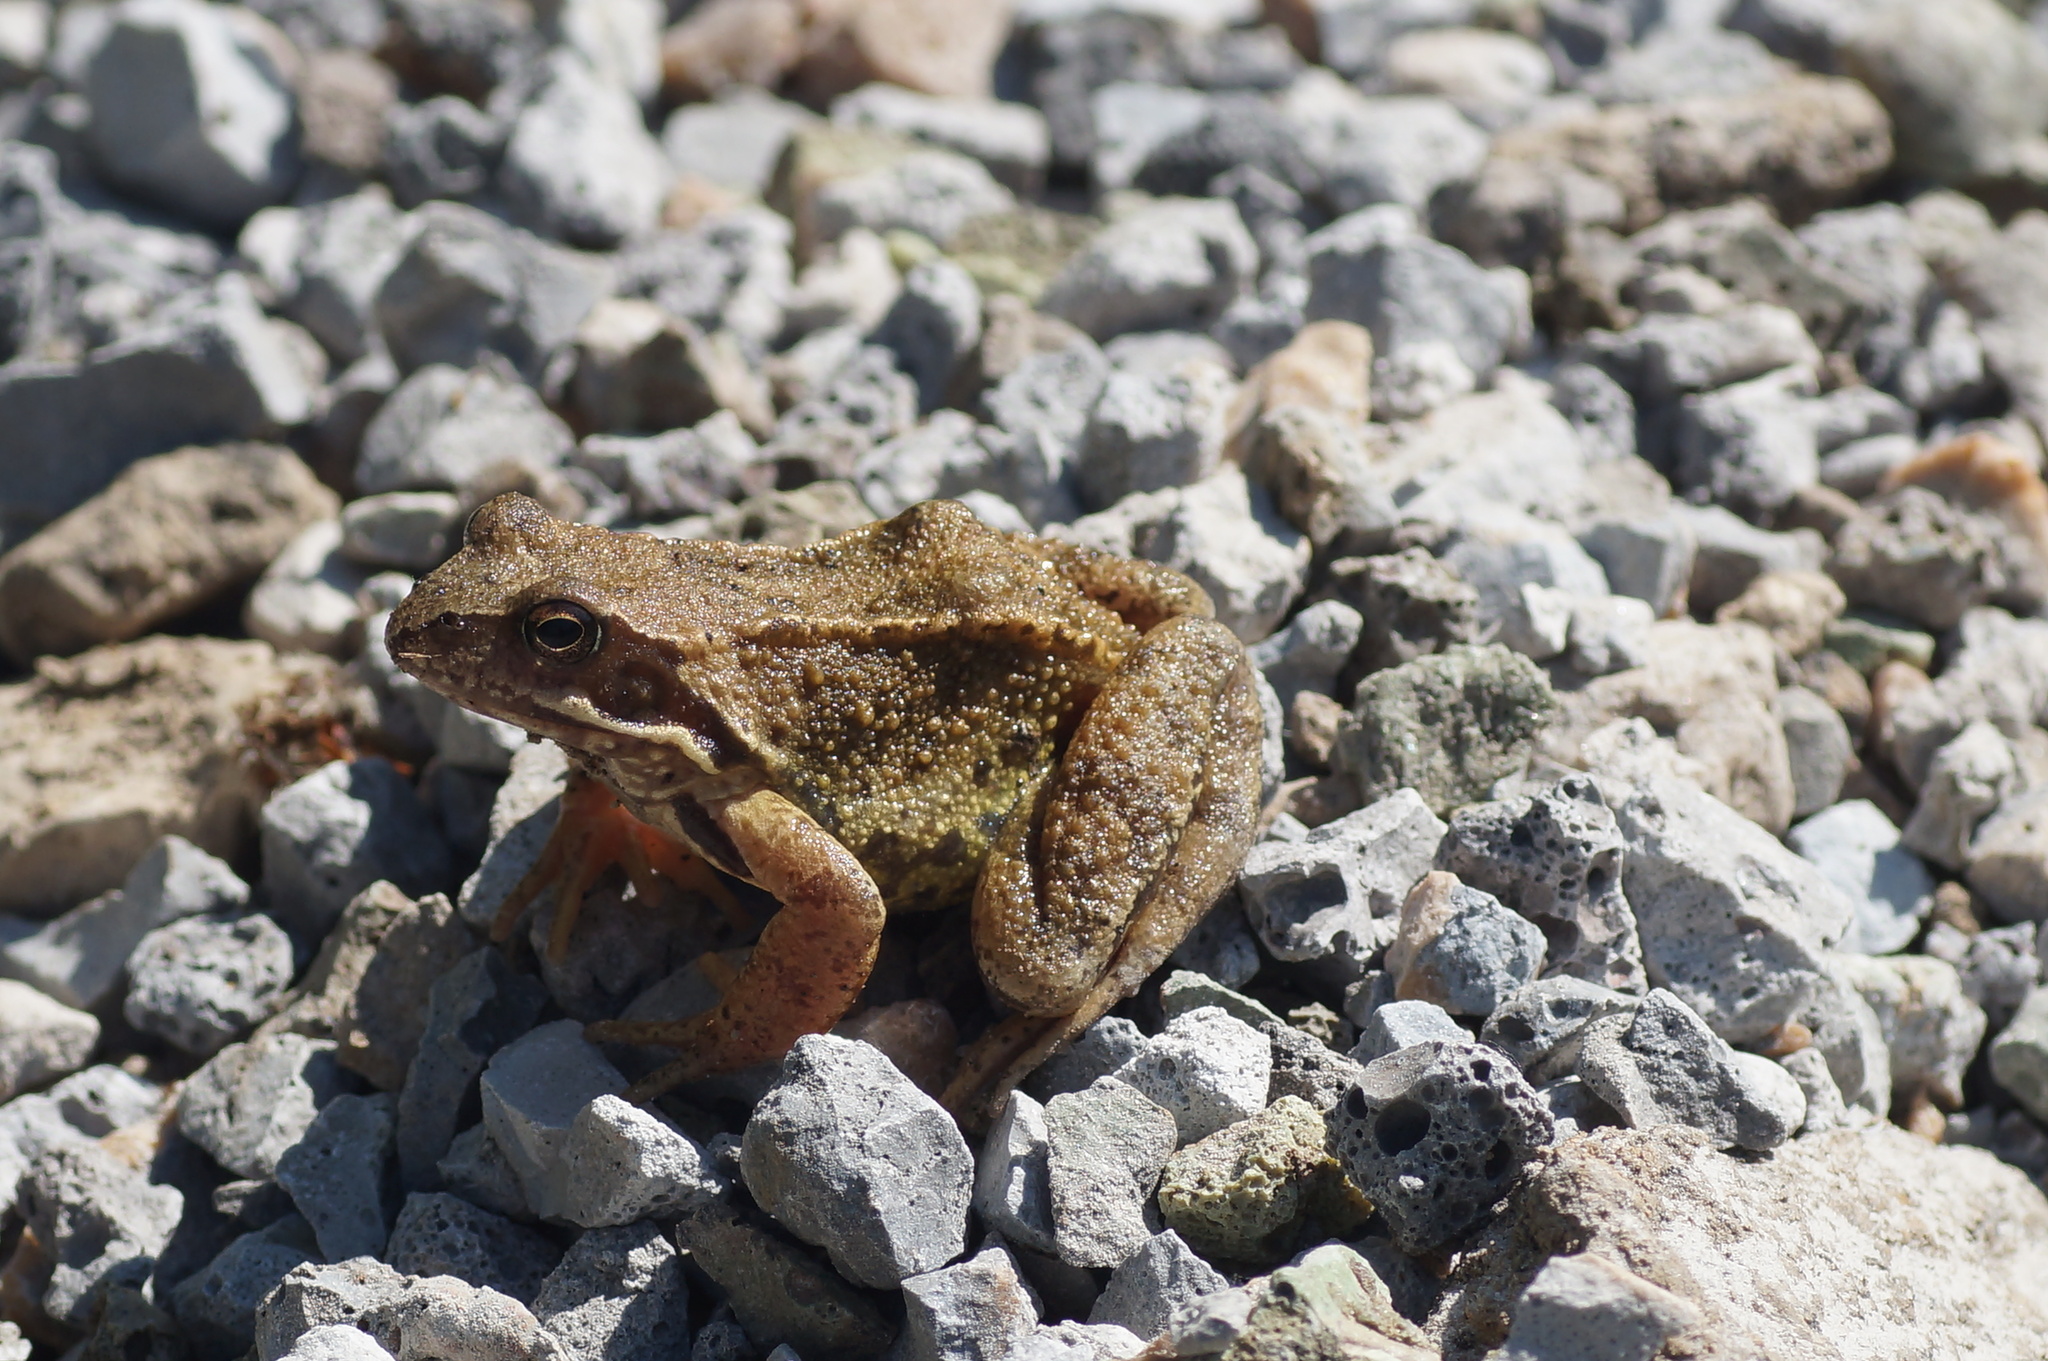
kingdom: Animalia
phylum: Chordata
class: Amphibia
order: Anura
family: Ranidae
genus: Rana
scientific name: Rana temporaria
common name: Common frog
